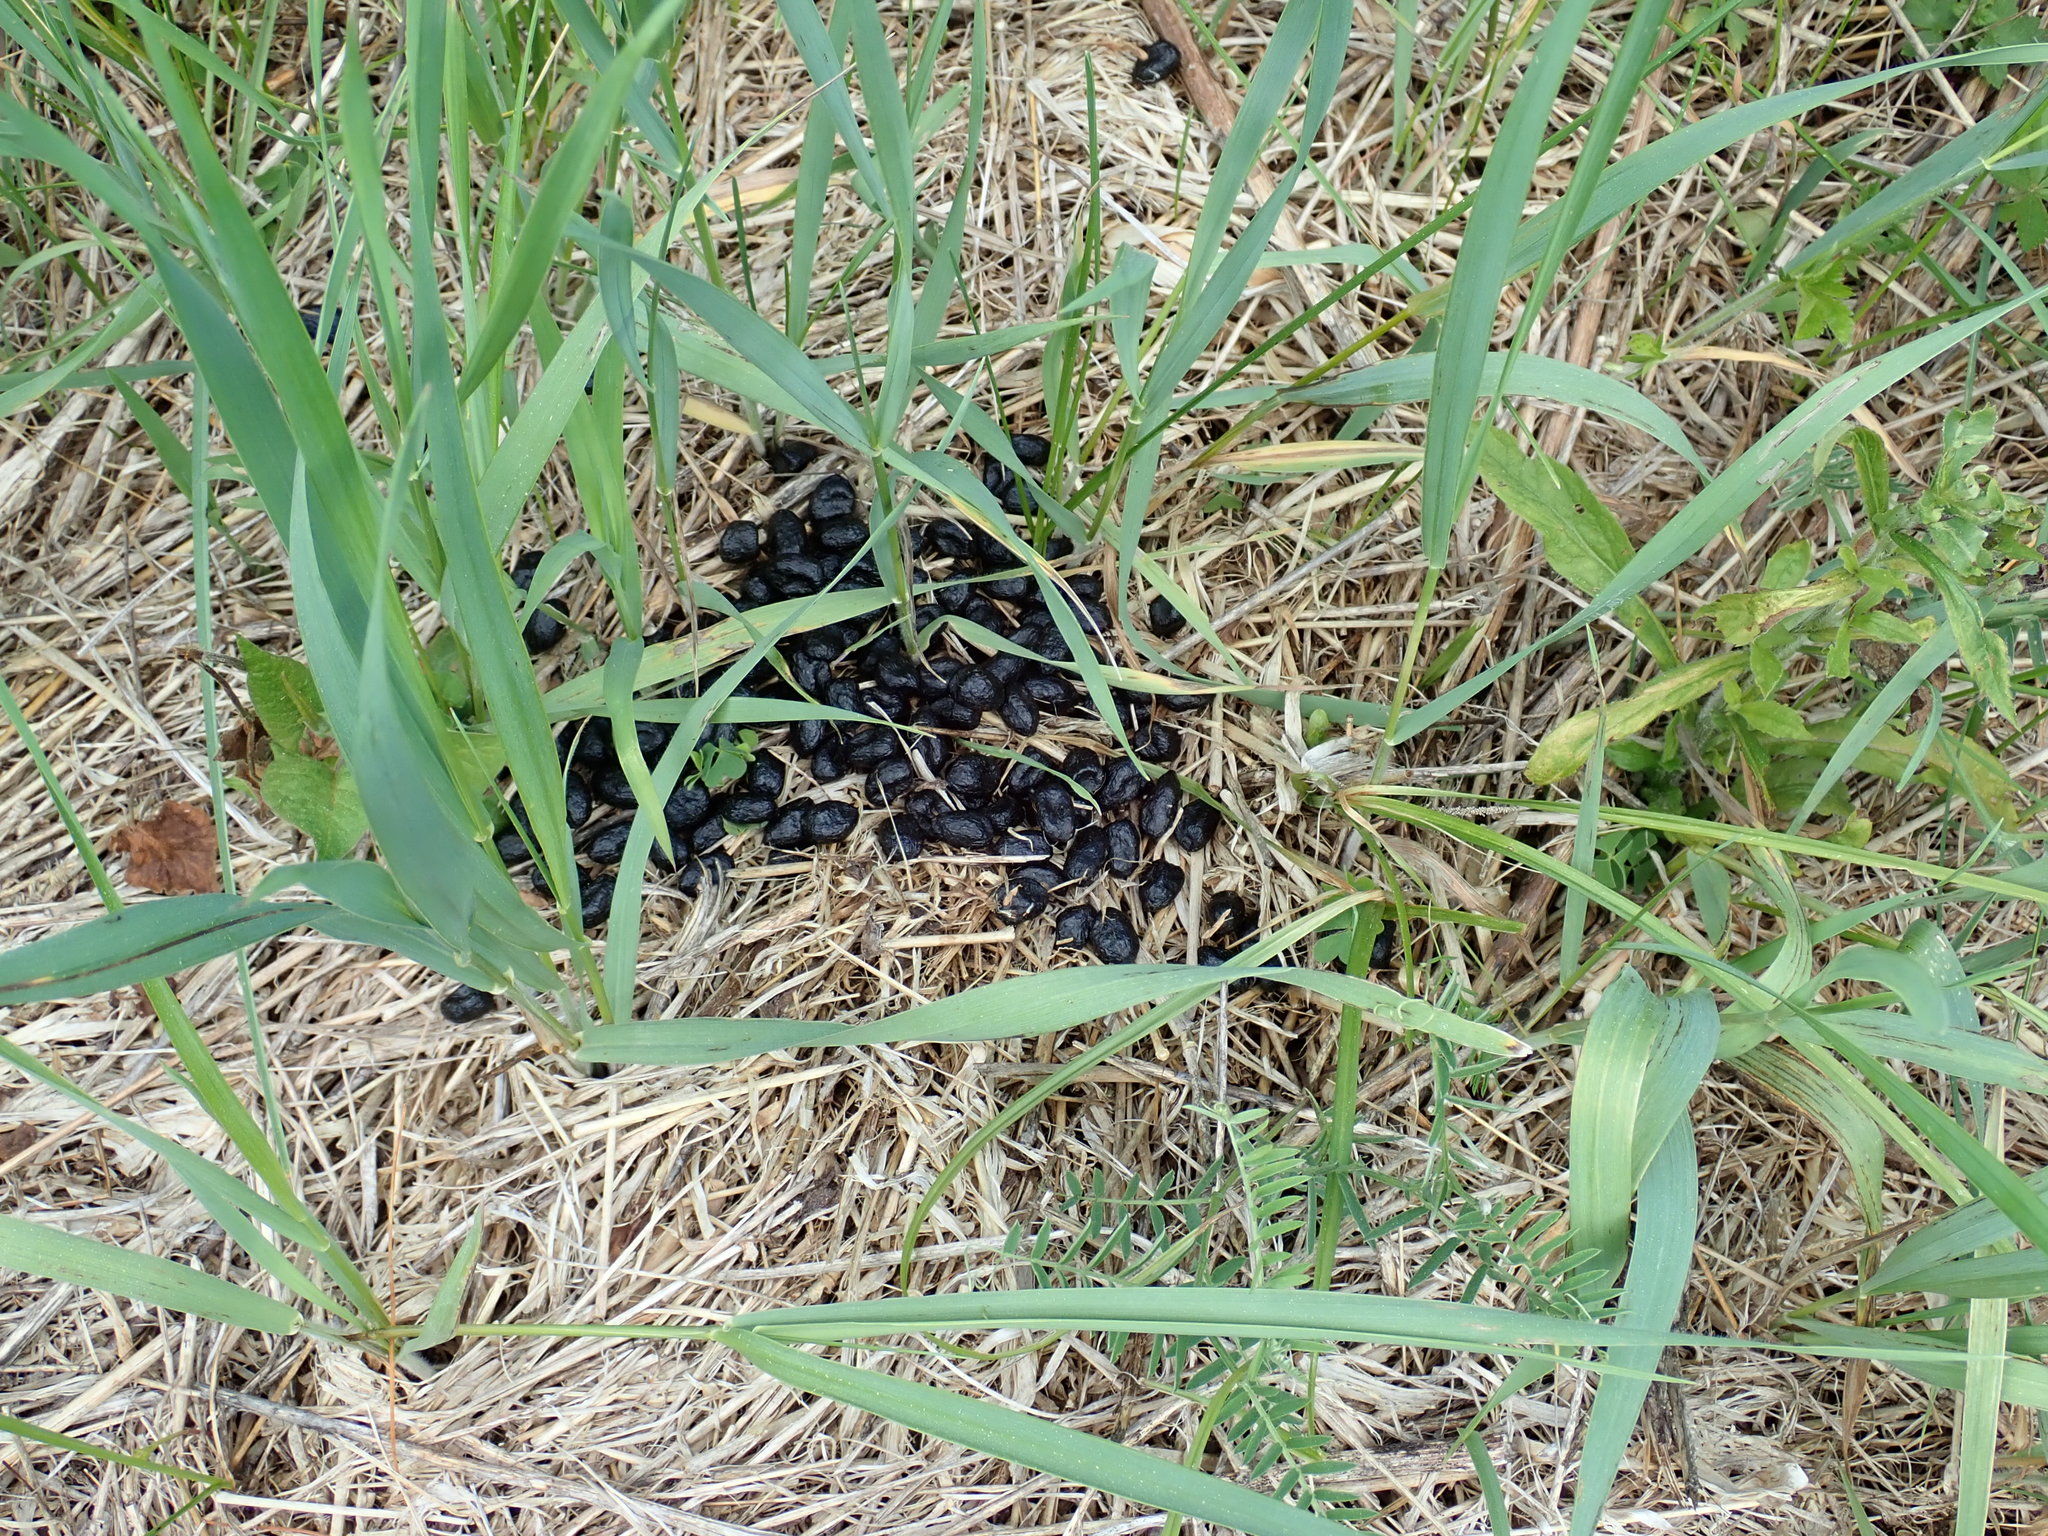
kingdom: Animalia
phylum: Chordata
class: Mammalia
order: Artiodactyla
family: Cervidae
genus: Odocoileus
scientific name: Odocoileus virginianus
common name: White-tailed deer
